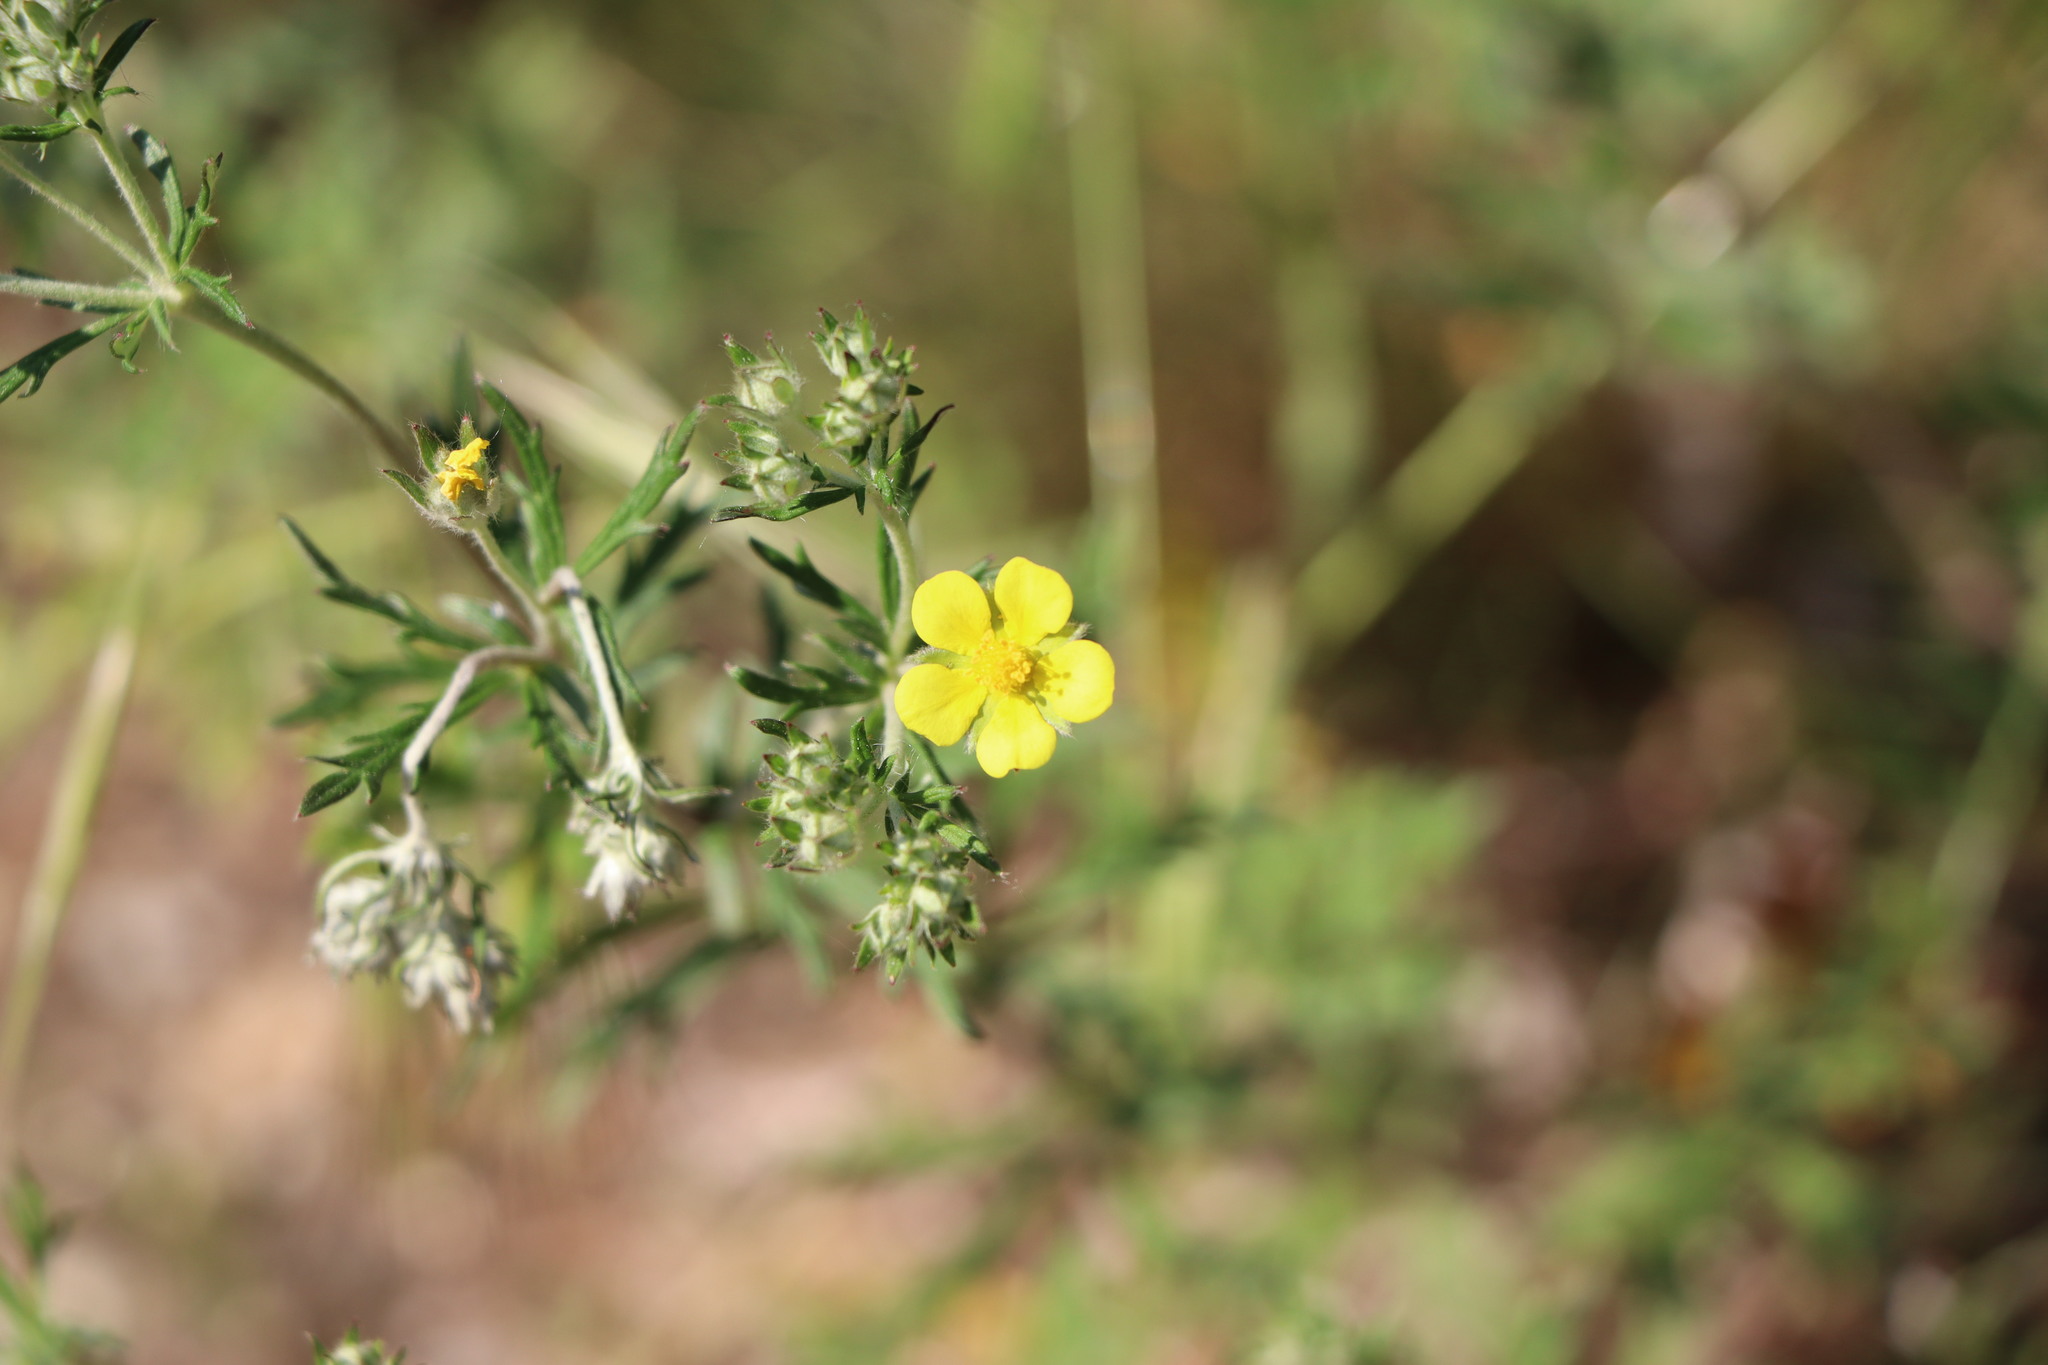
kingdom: Plantae
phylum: Tracheophyta
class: Magnoliopsida
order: Rosales
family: Rosaceae
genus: Potentilla
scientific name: Potentilla argentea
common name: Hoary cinquefoil
